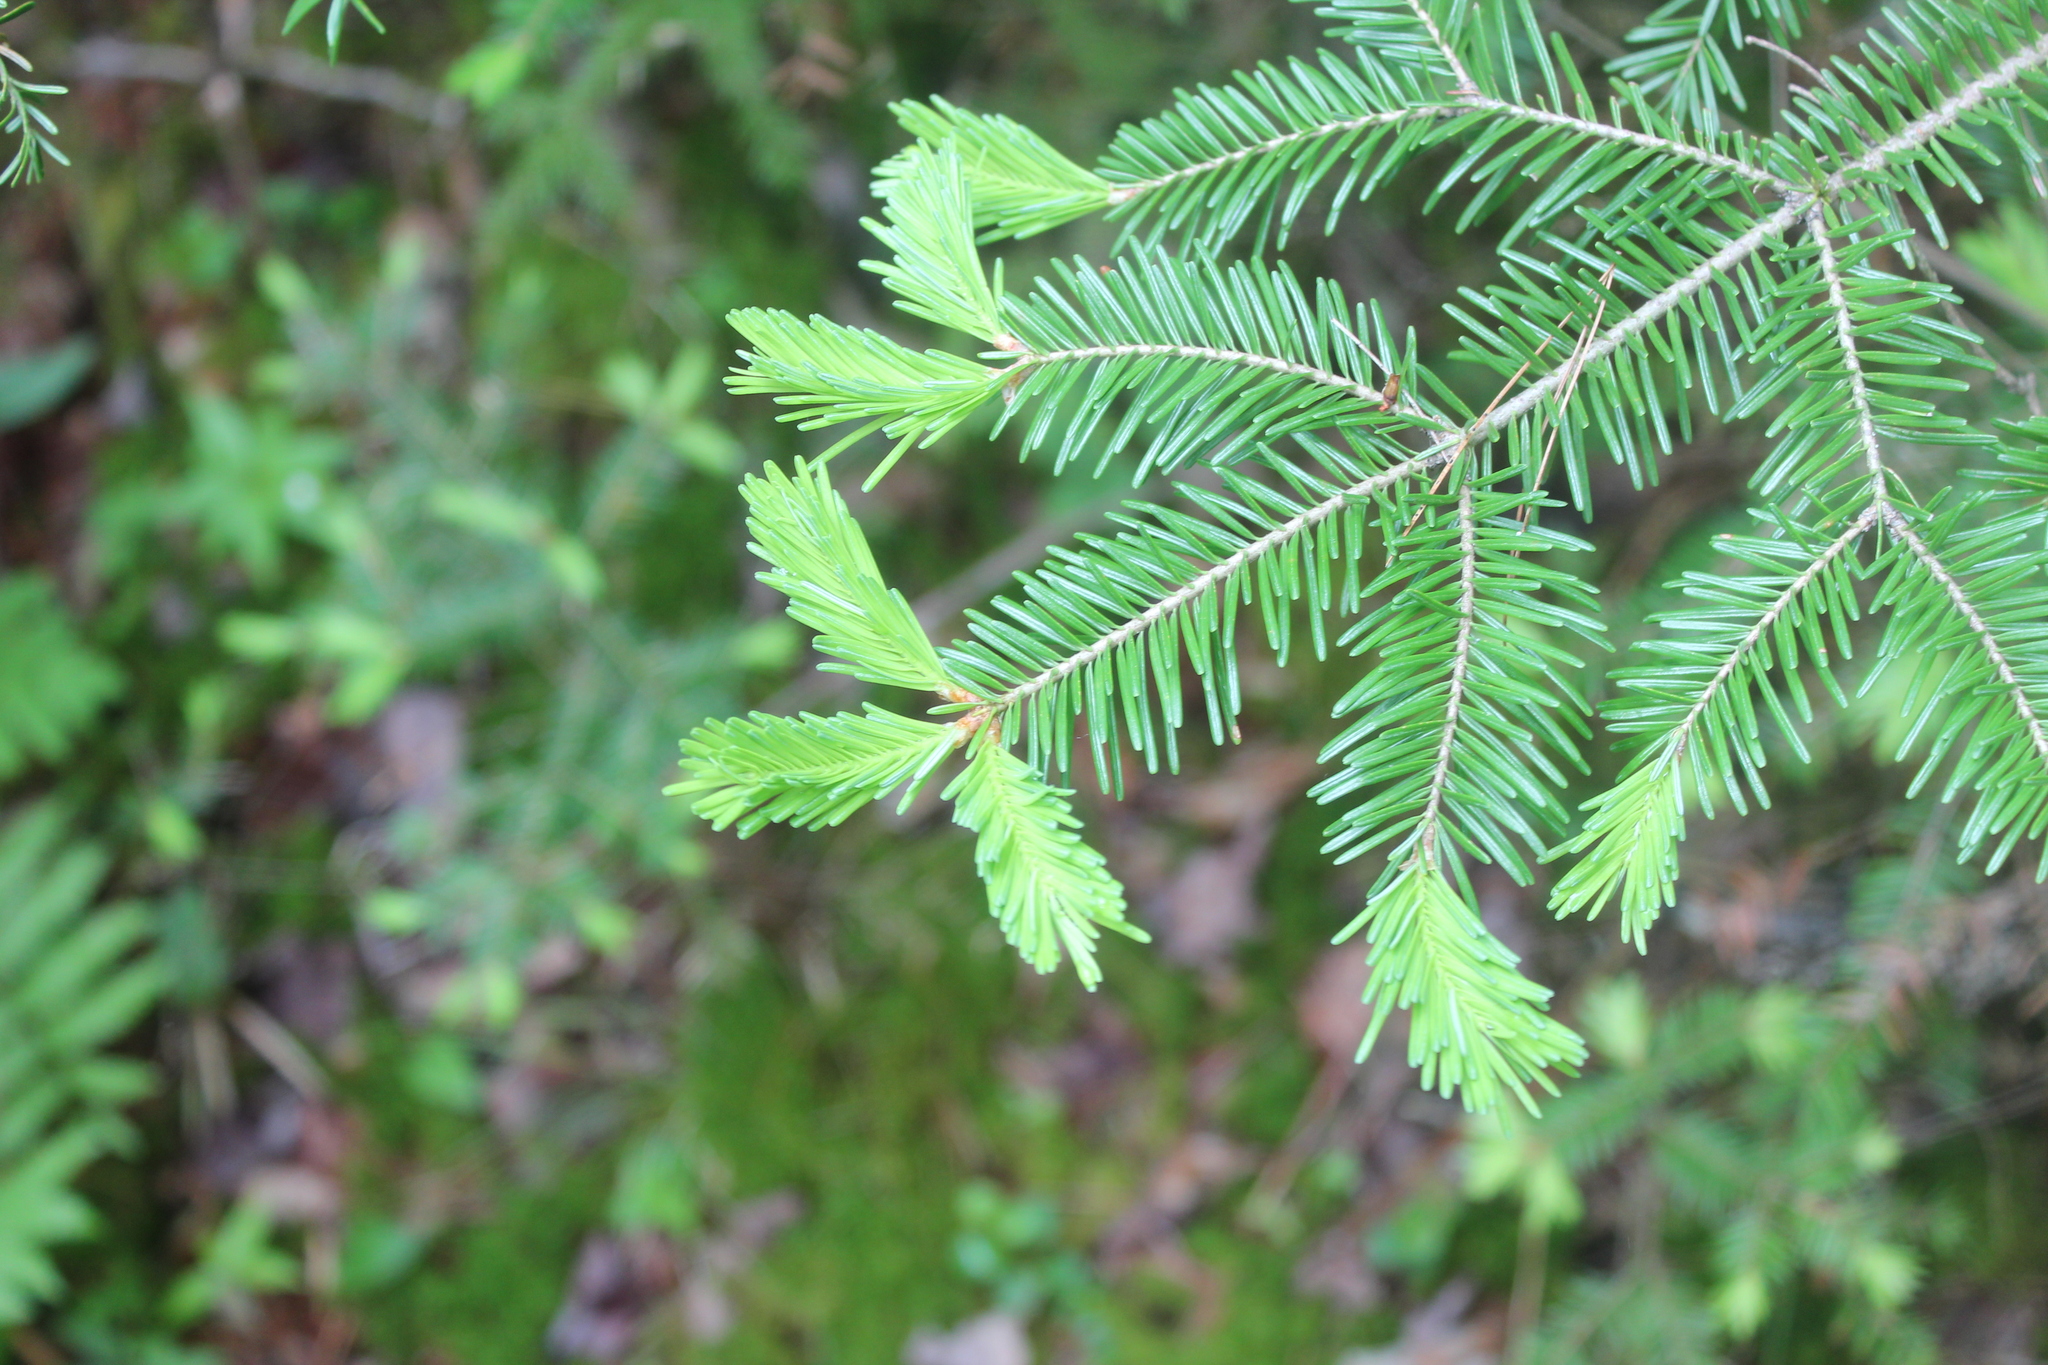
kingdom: Plantae
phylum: Tracheophyta
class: Pinopsida
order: Pinales
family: Pinaceae
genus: Abies
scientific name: Abies balsamea
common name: Balsam fir
